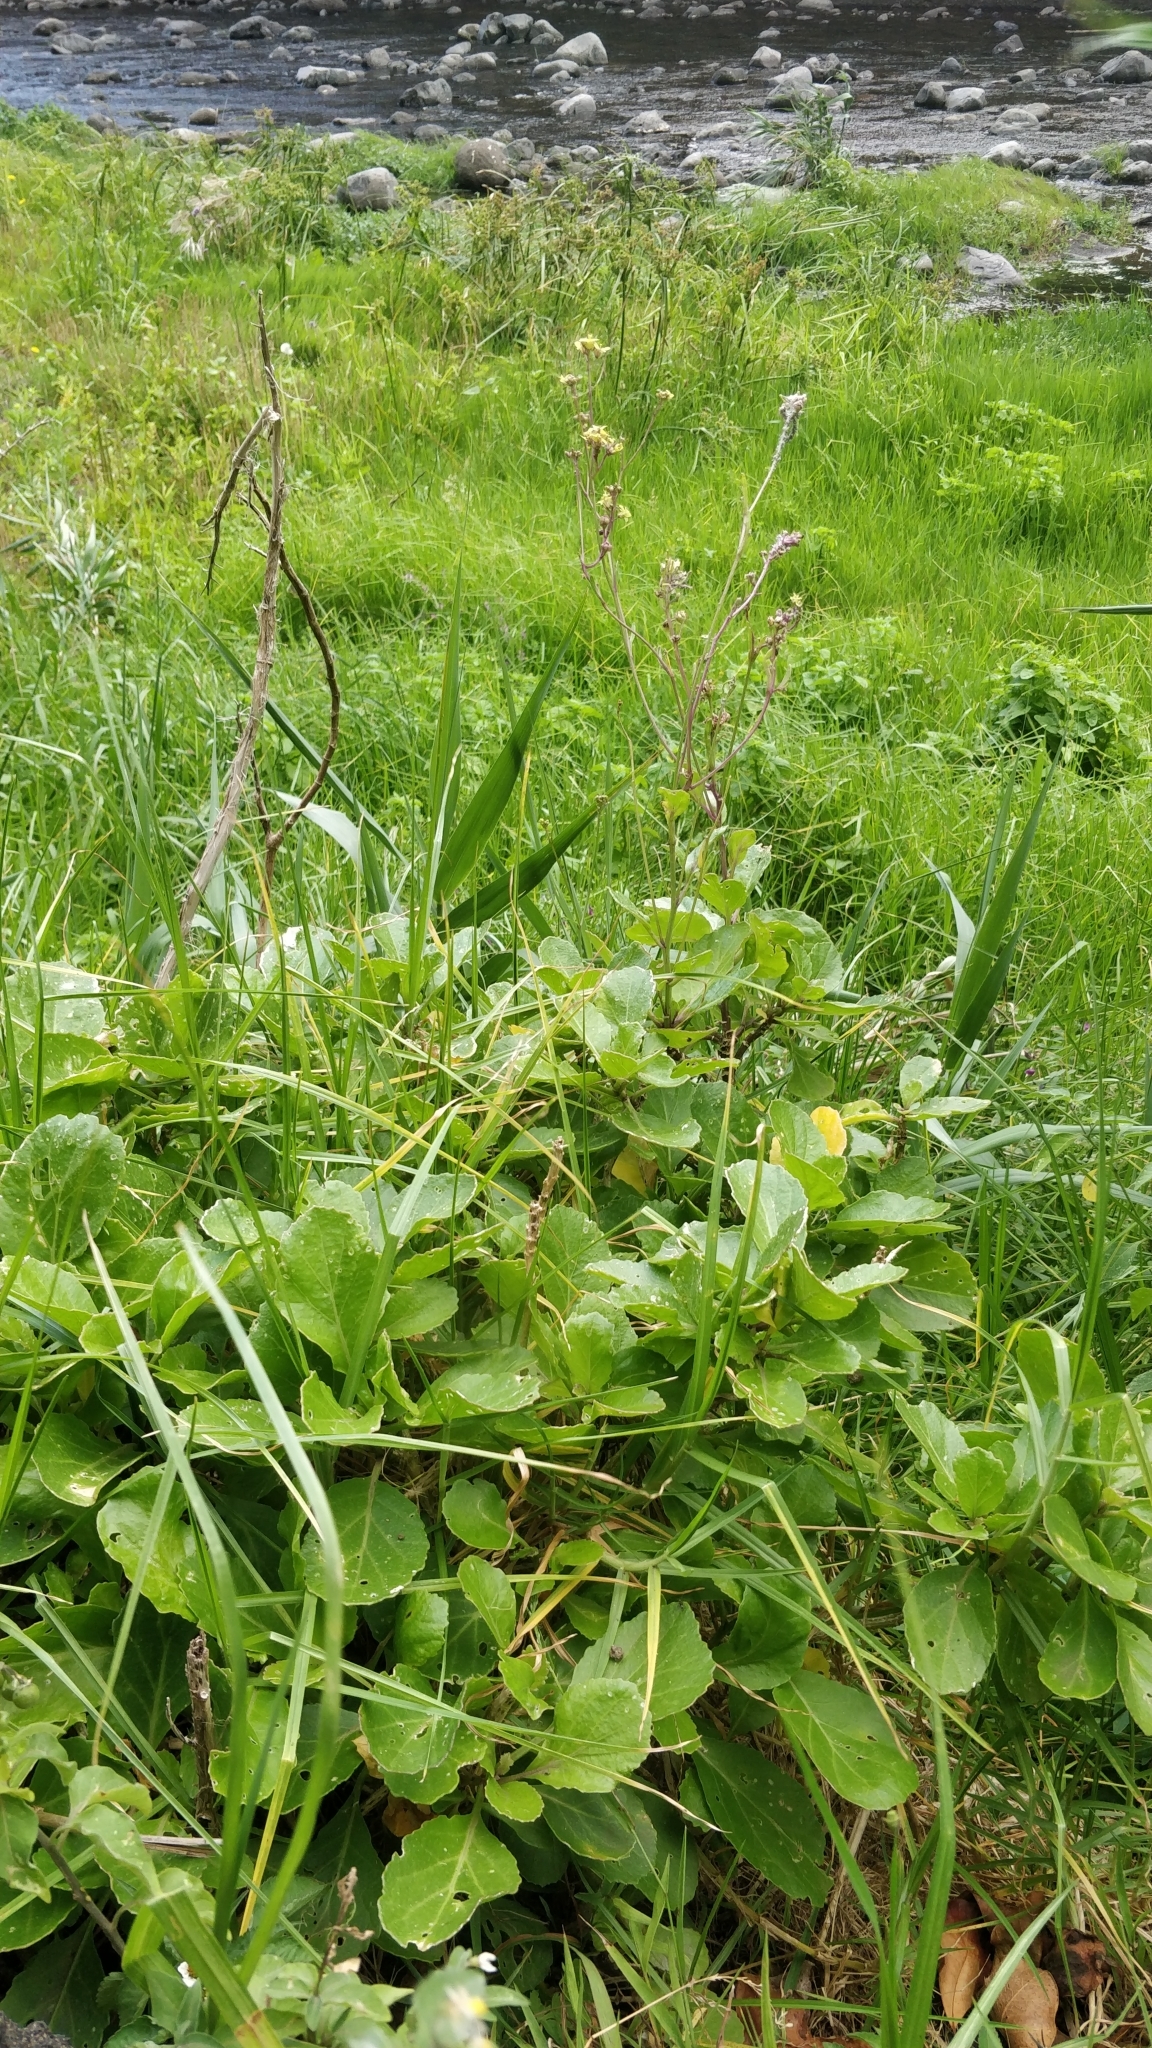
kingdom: Plantae
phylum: Tracheophyta
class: Magnoliopsida
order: Brassicales
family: Brassicaceae
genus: Sinapidendron
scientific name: Sinapidendron rupestre
